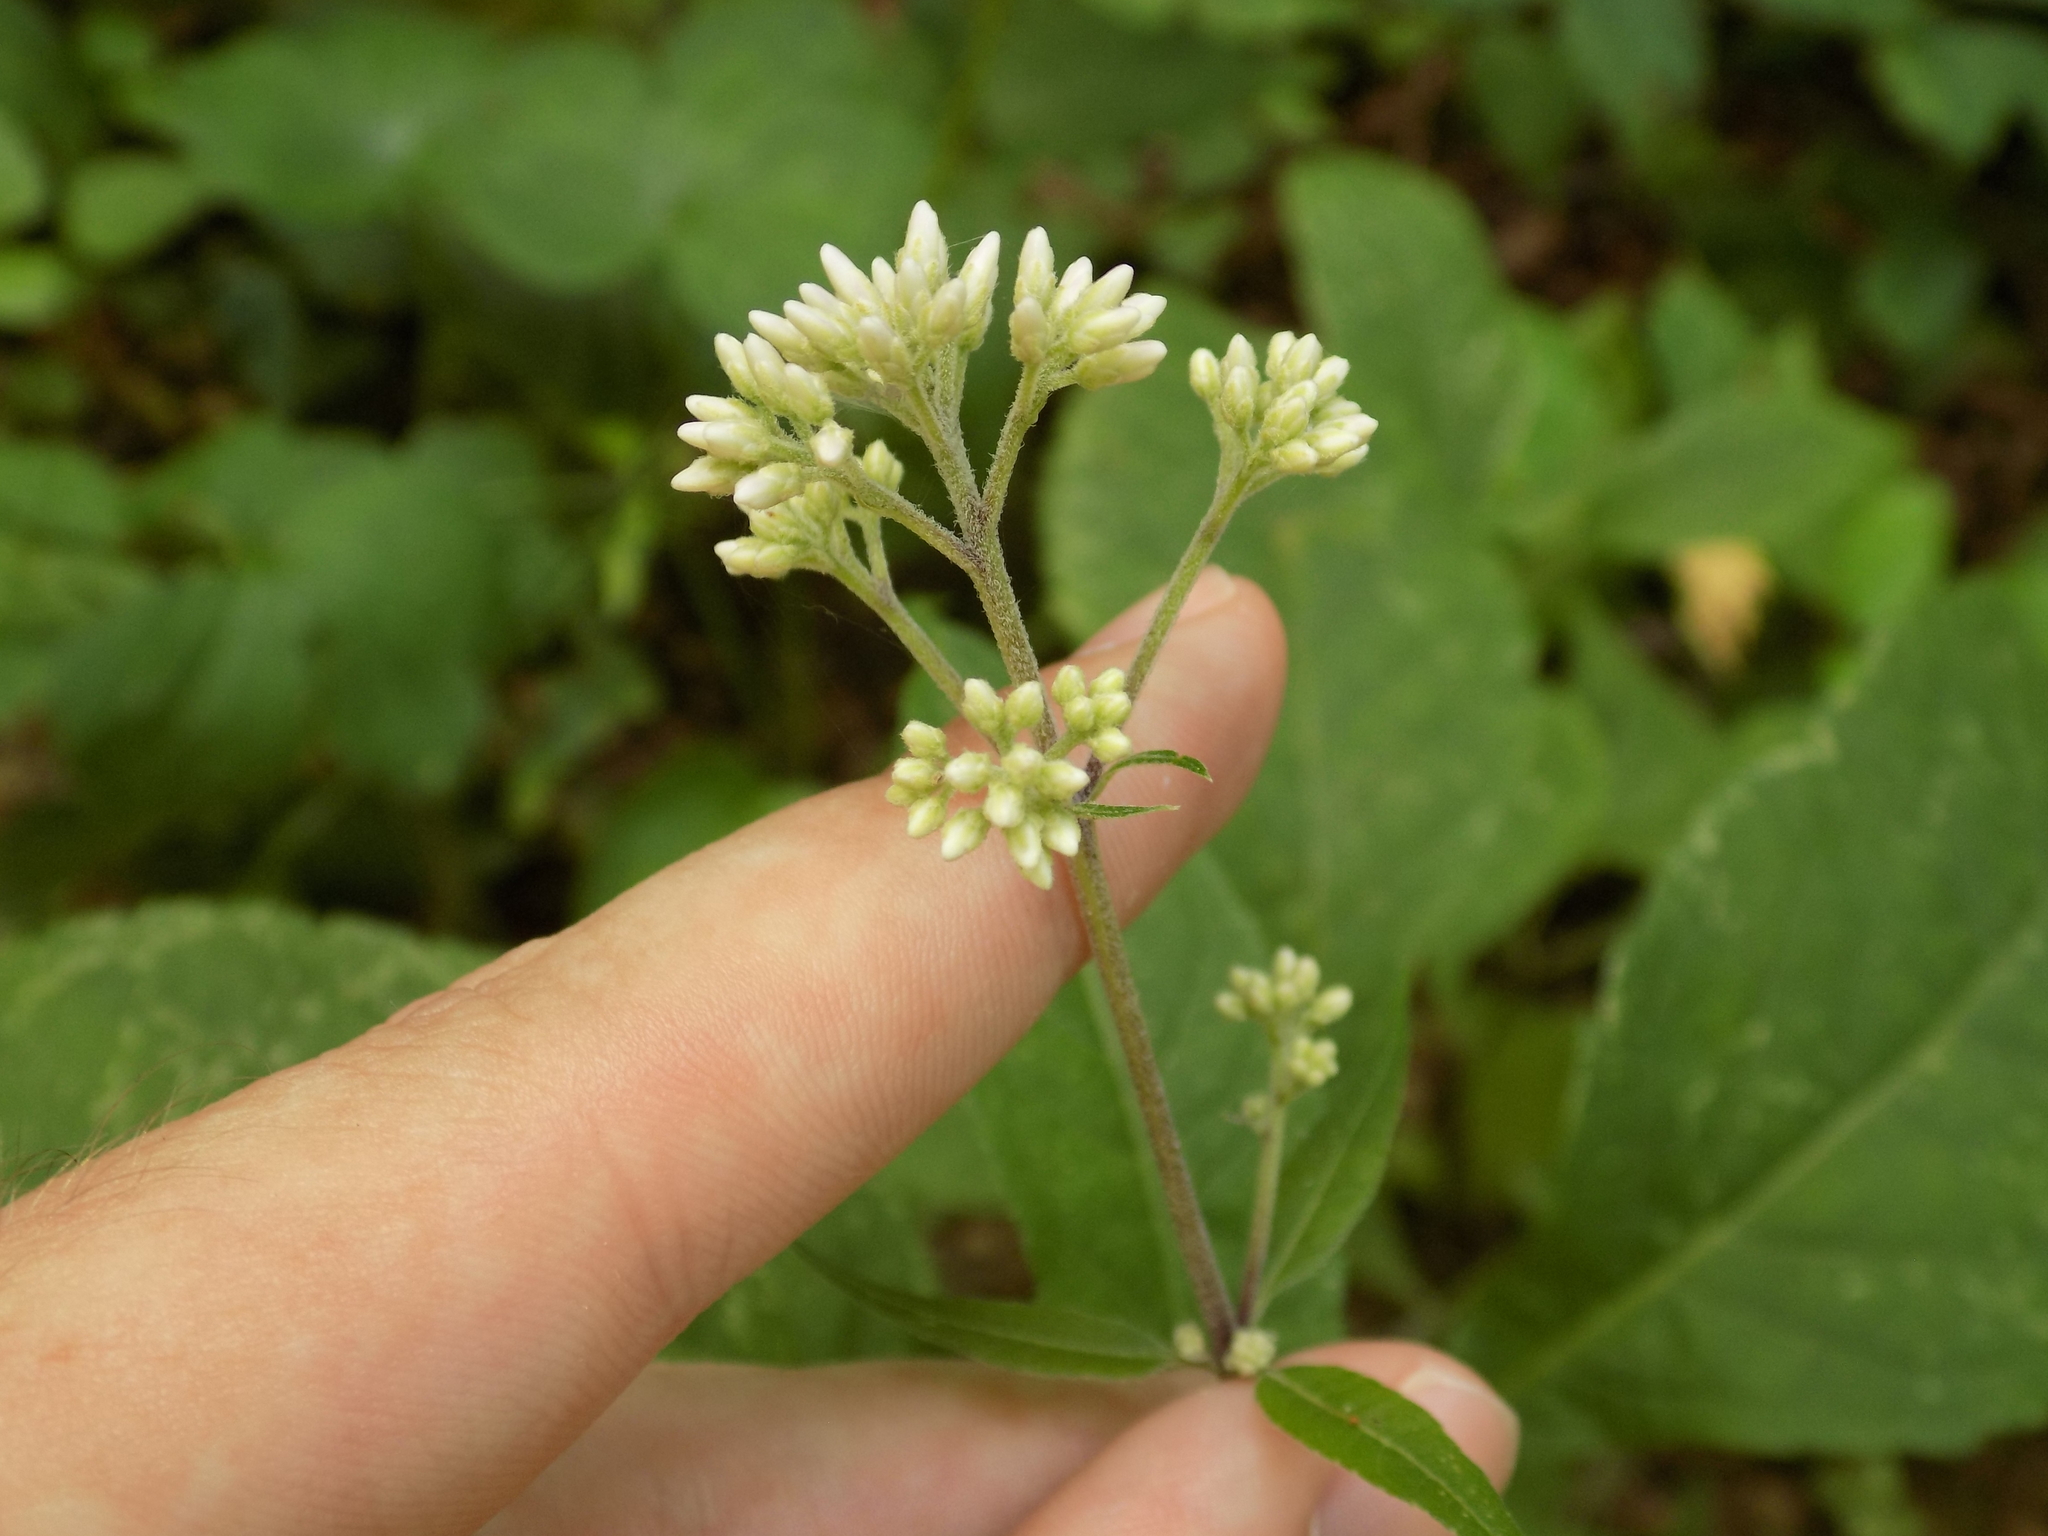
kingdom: Plantae
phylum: Tracheophyta
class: Magnoliopsida
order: Asterales
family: Asteraceae
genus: Eutrochium
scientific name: Eutrochium purpureum
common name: Gravelroot
